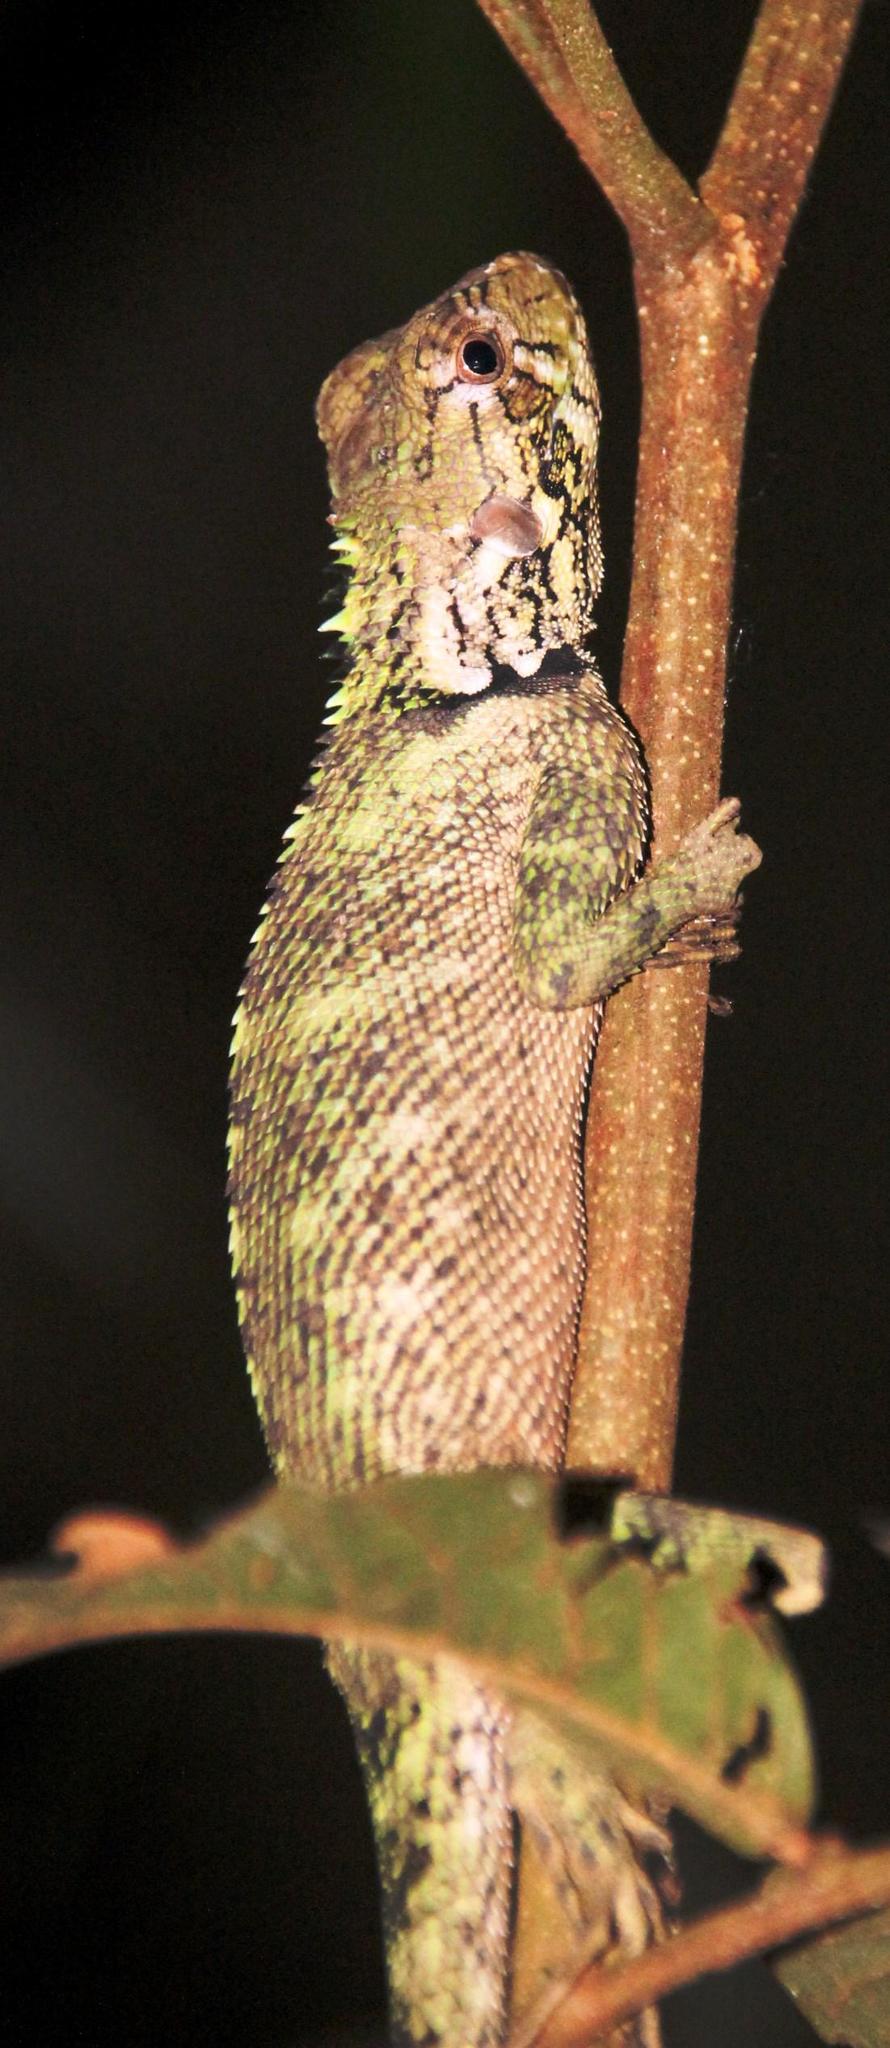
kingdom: Animalia
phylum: Chordata
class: Squamata
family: Tropiduridae
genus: Plica
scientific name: Plica umbra
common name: Harlequin racerunner
